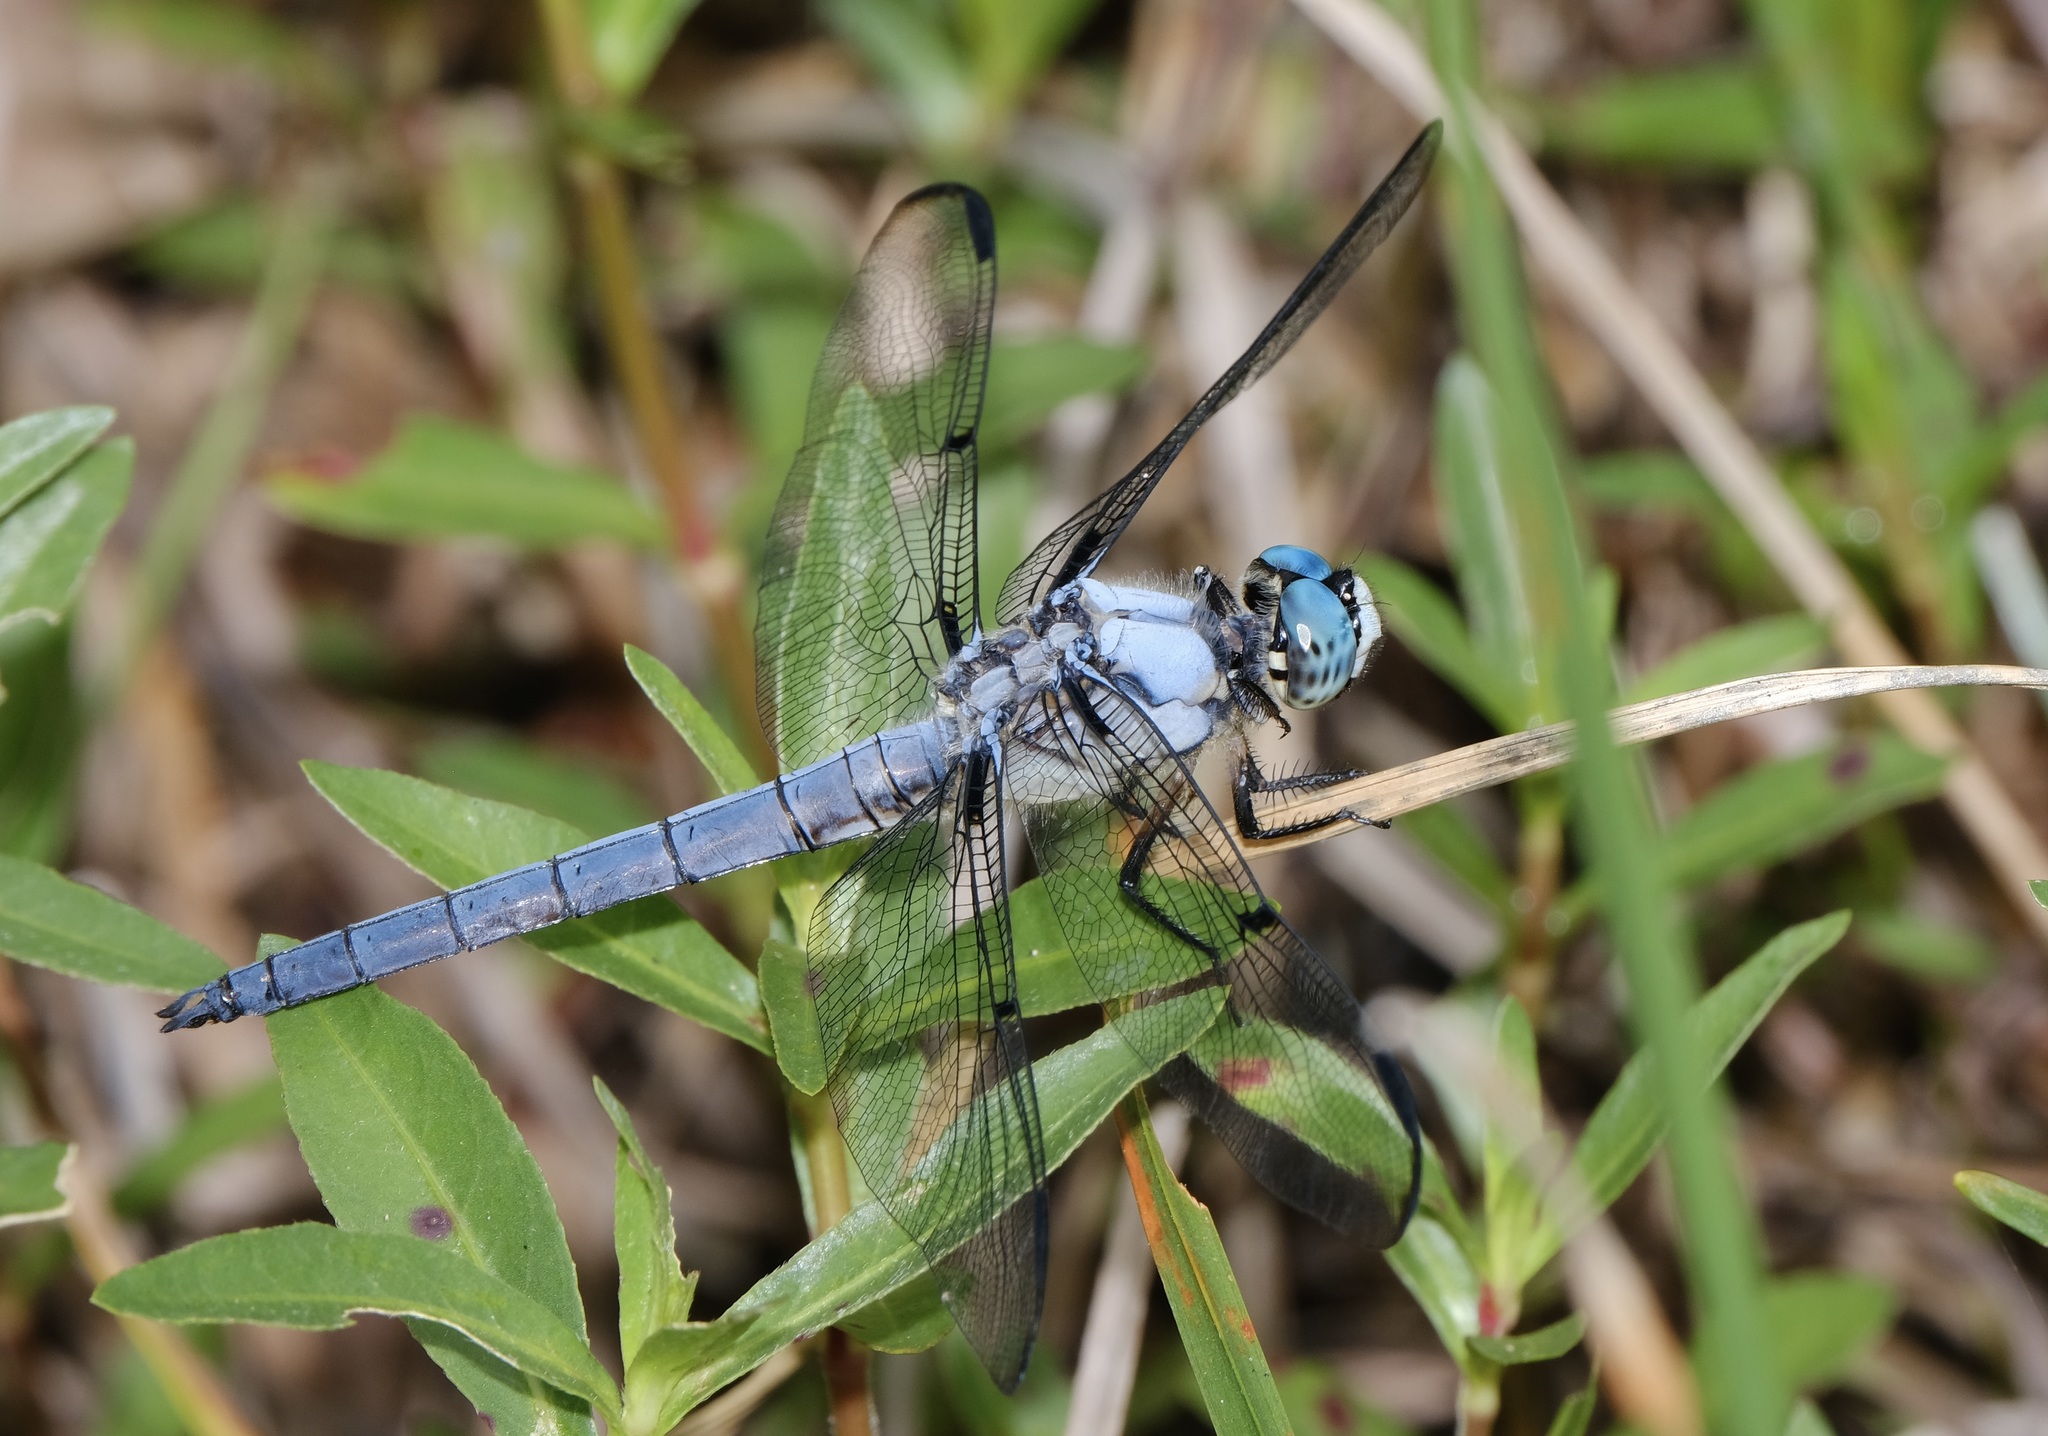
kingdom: Animalia
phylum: Arthropoda
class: Insecta
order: Odonata
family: Libellulidae
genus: Libellula
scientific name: Libellula vibrans
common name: Great blue skimmer
